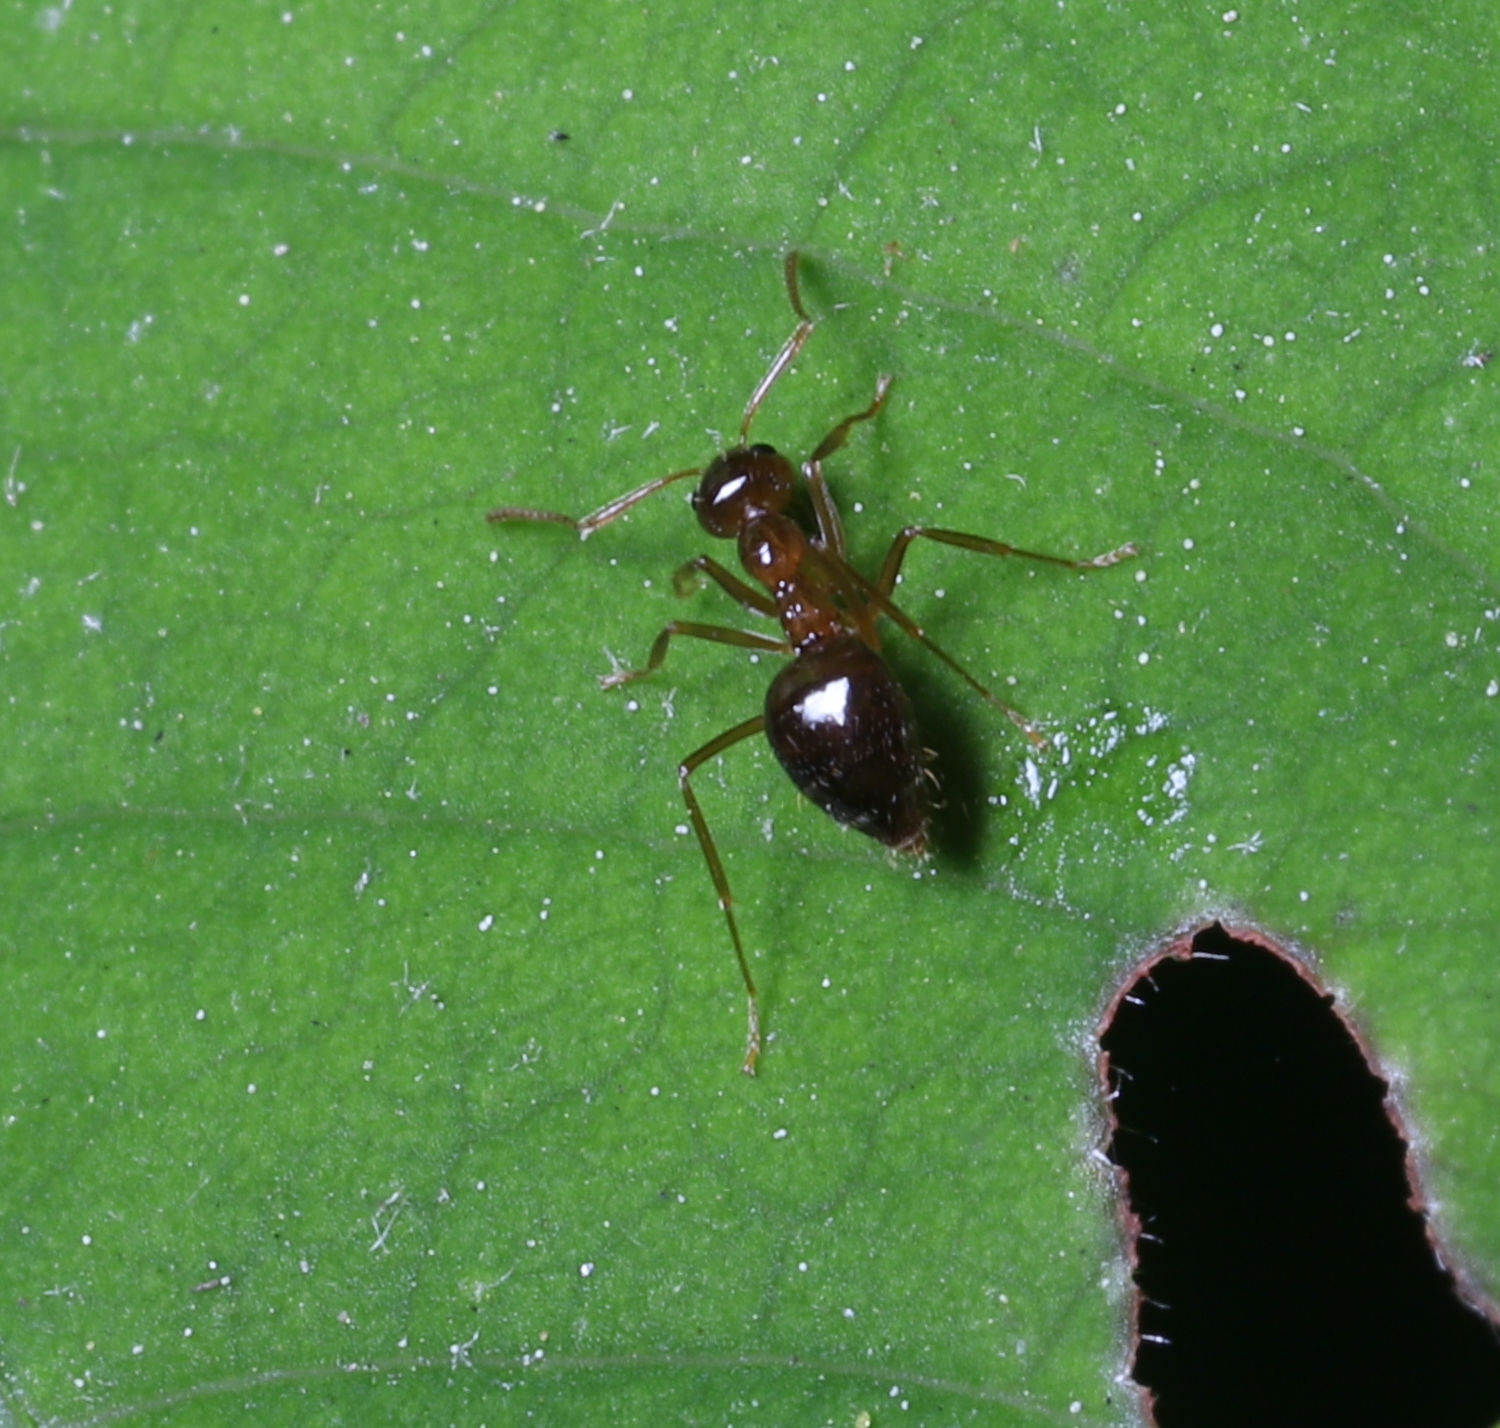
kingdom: Animalia
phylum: Arthropoda
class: Insecta
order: Hymenoptera
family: Formicidae
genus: Prenolepis
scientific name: Prenolepis imparis
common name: Small honey ant
